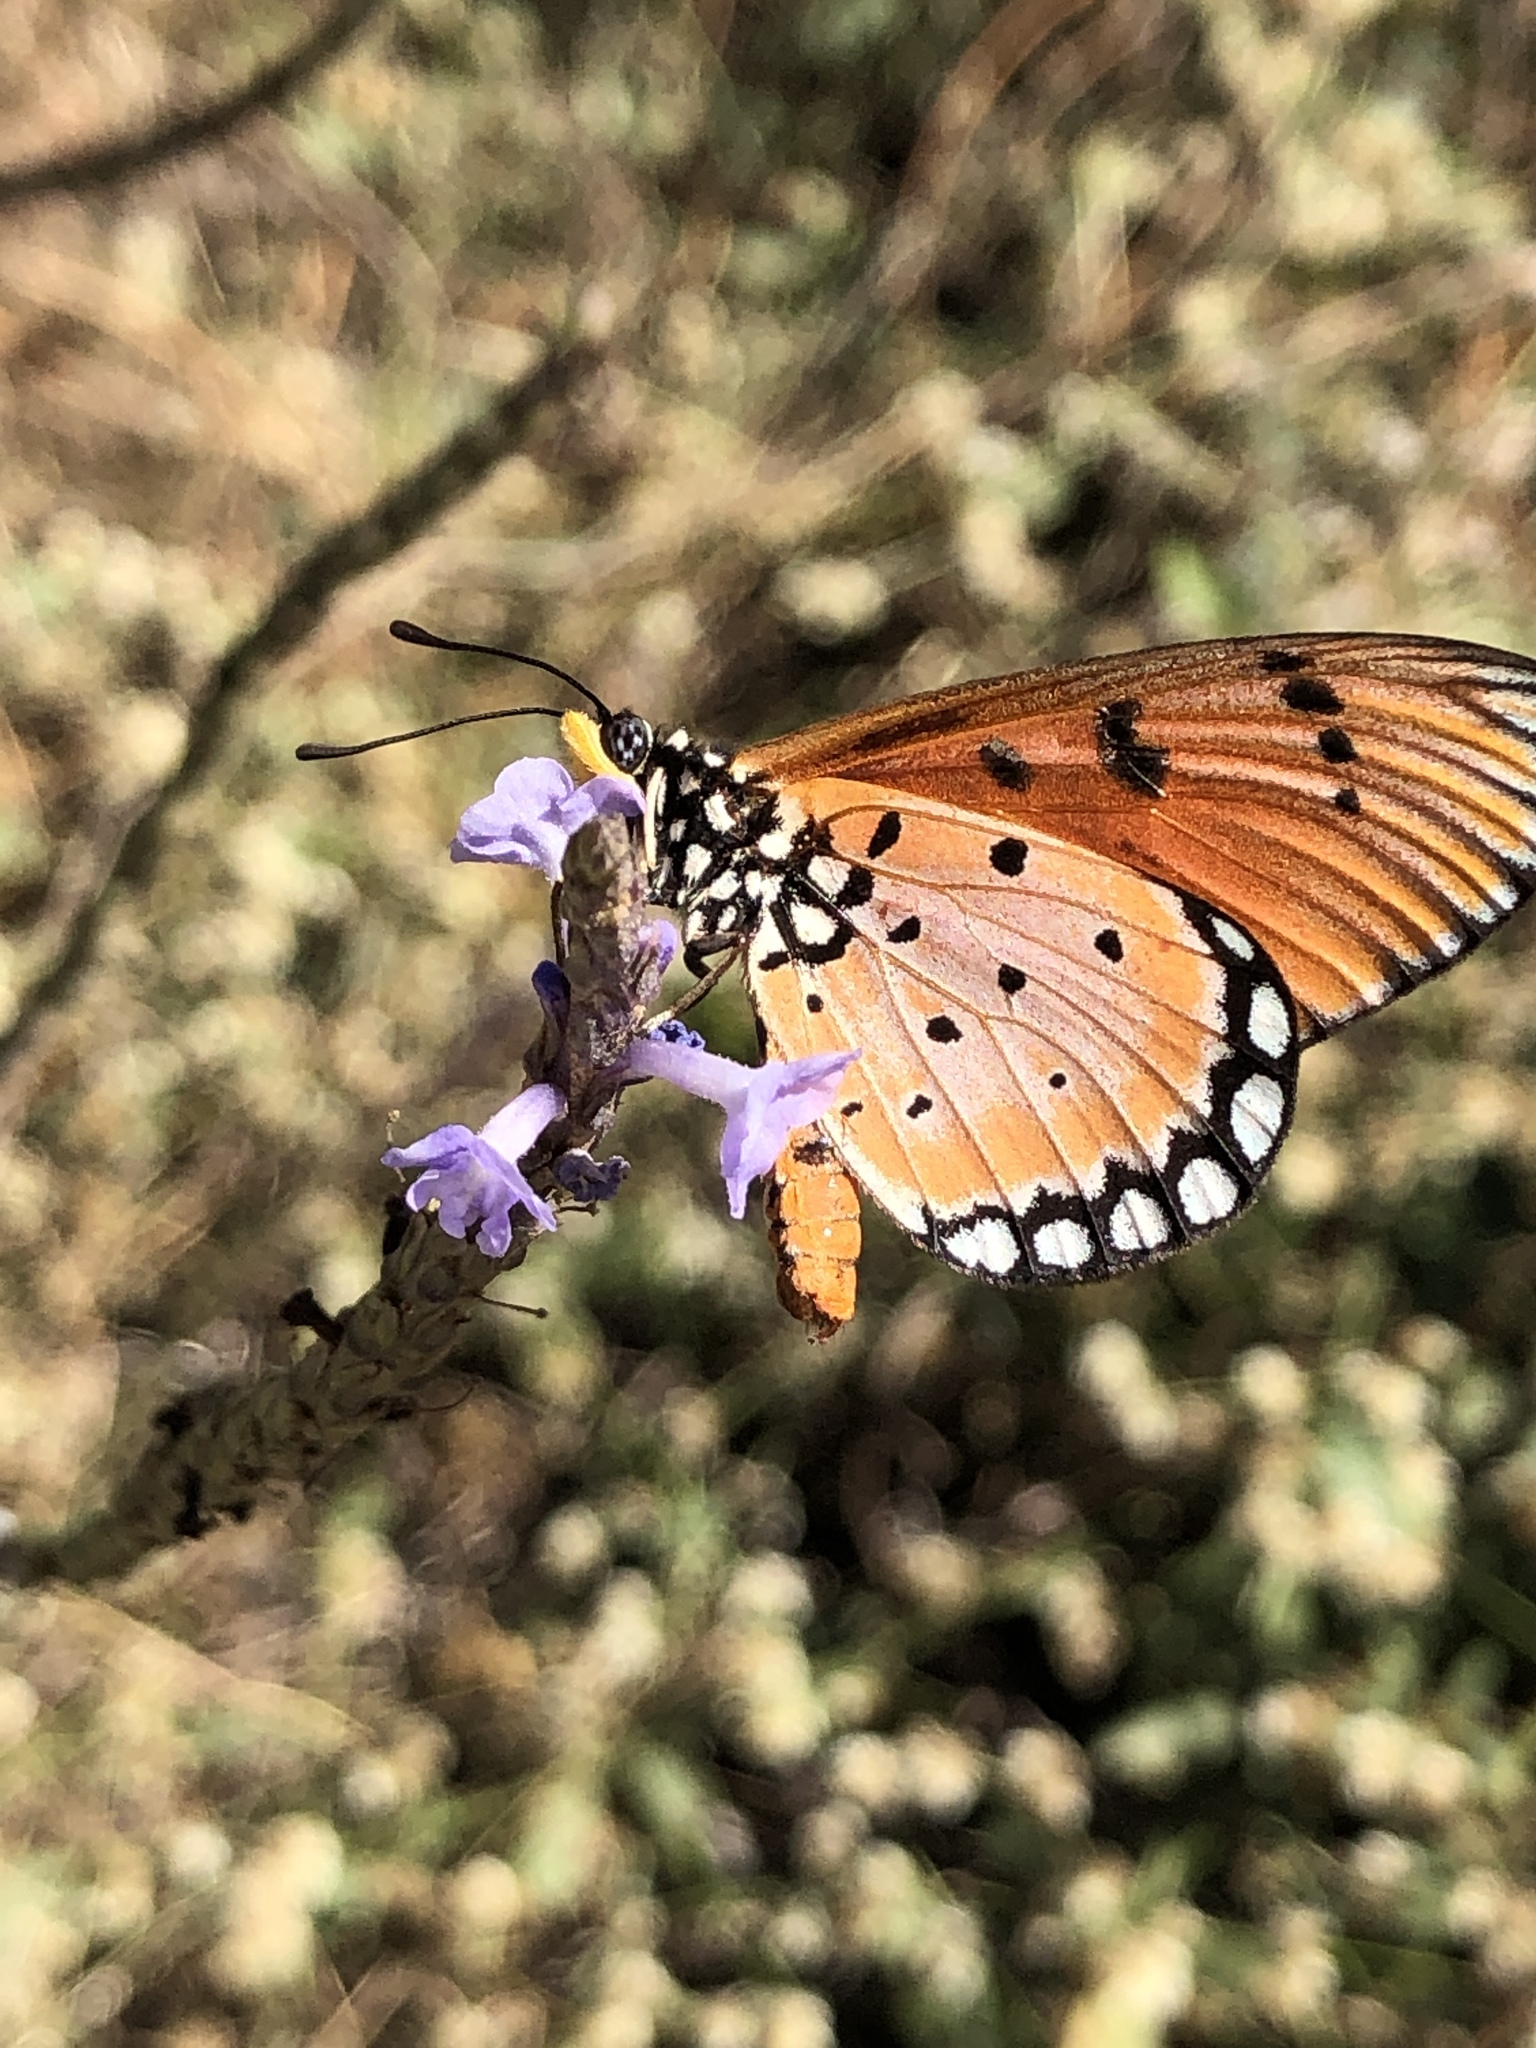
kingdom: Animalia
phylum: Arthropoda
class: Insecta
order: Lepidoptera
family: Nymphalidae
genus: Acraea
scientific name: Acraea terpsicore
